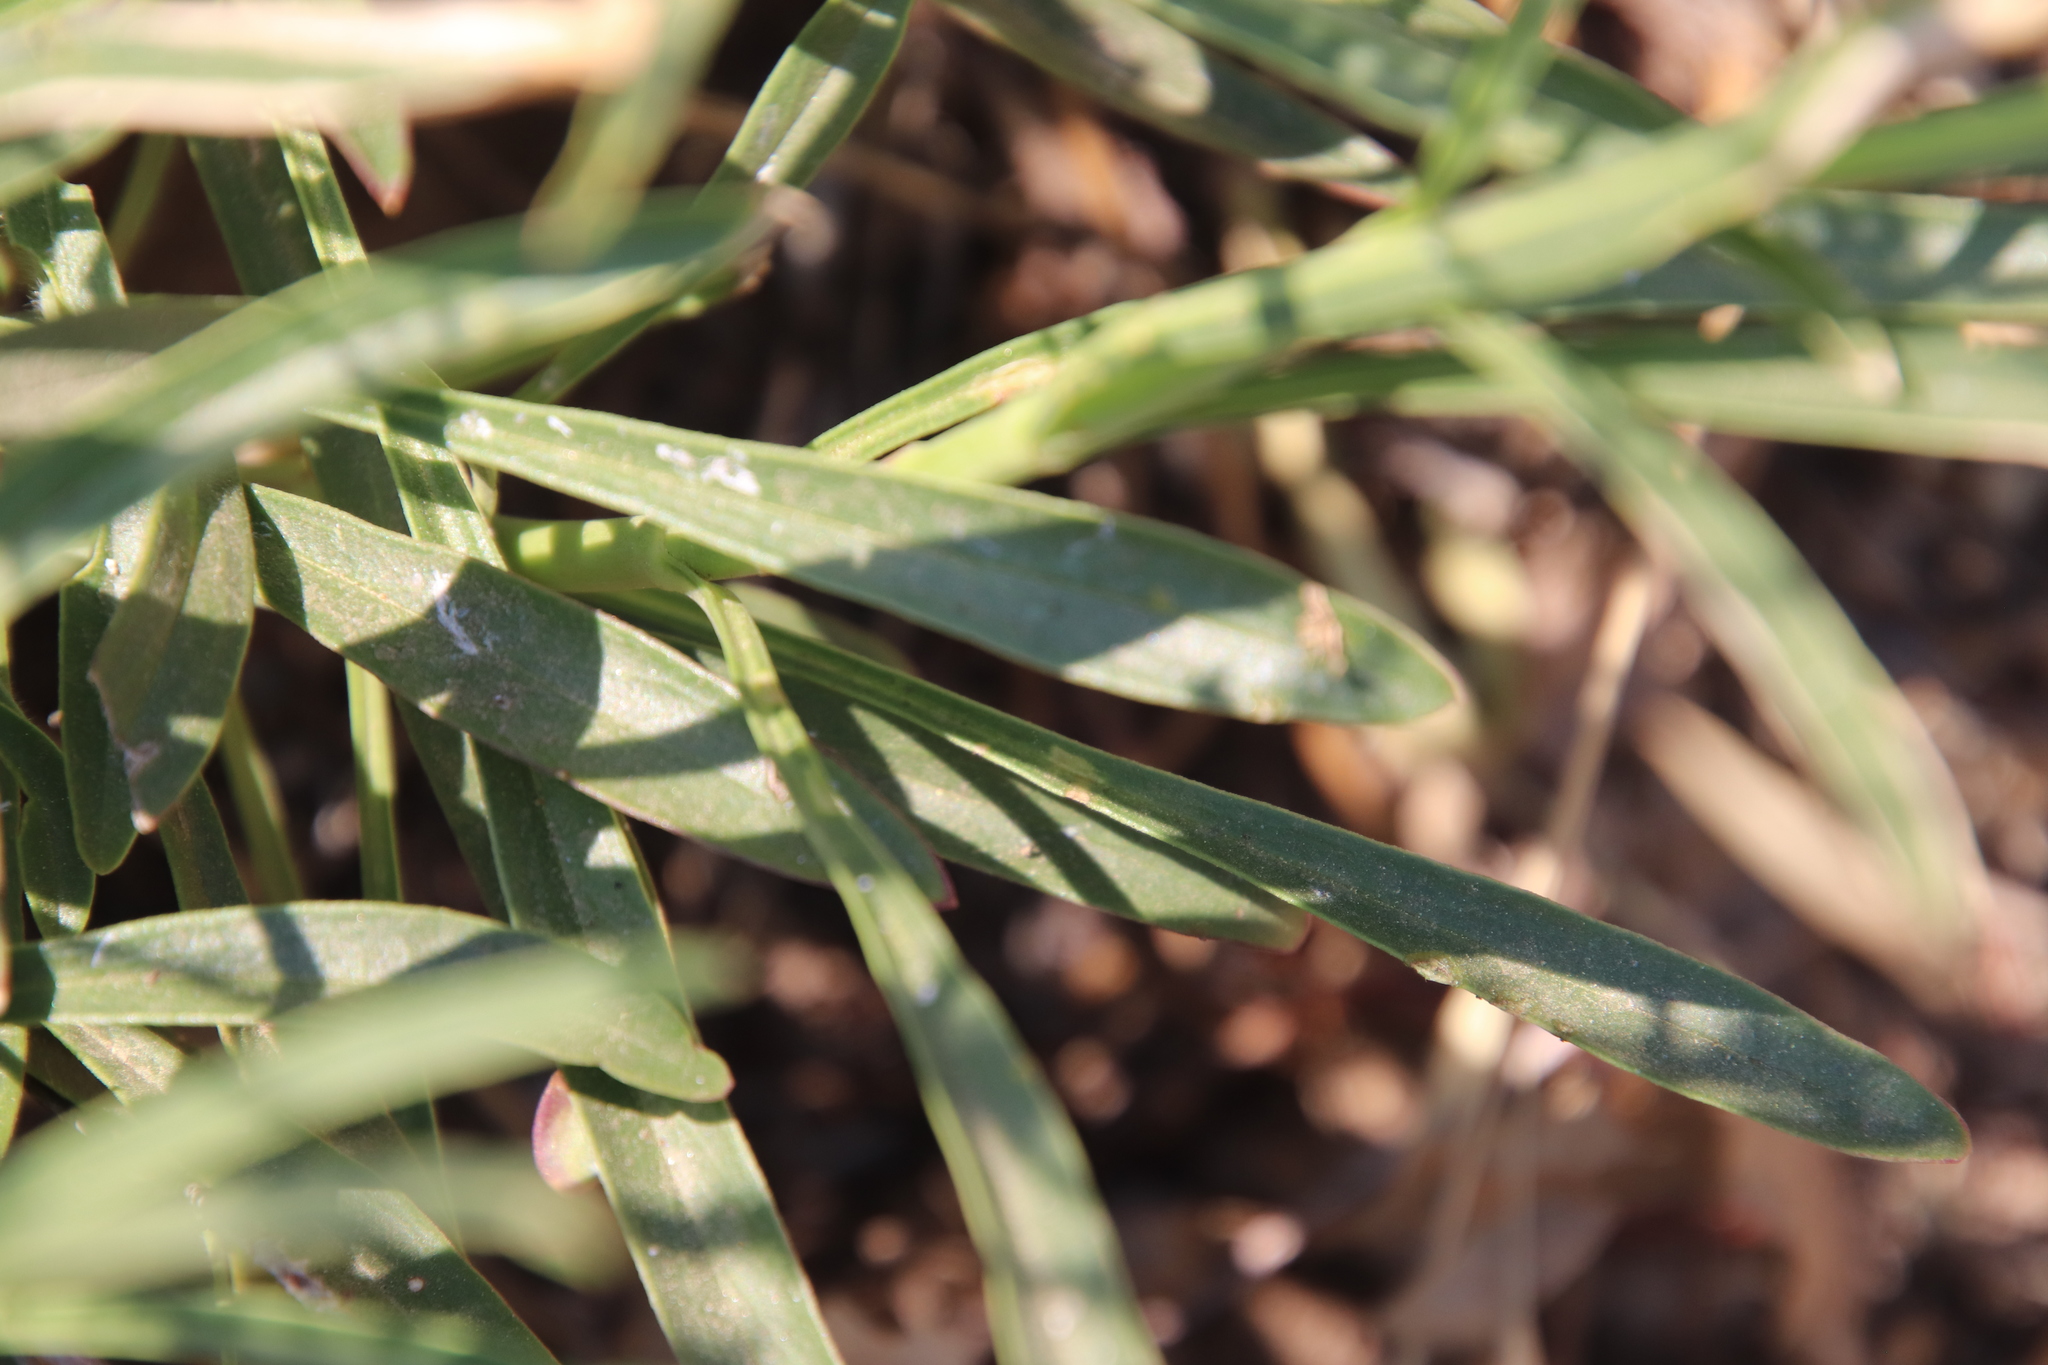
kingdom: Plantae
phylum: Tracheophyta
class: Magnoliopsida
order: Lamiales
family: Plantaginaceae
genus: Penstemon
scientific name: Penstemon labrosus
